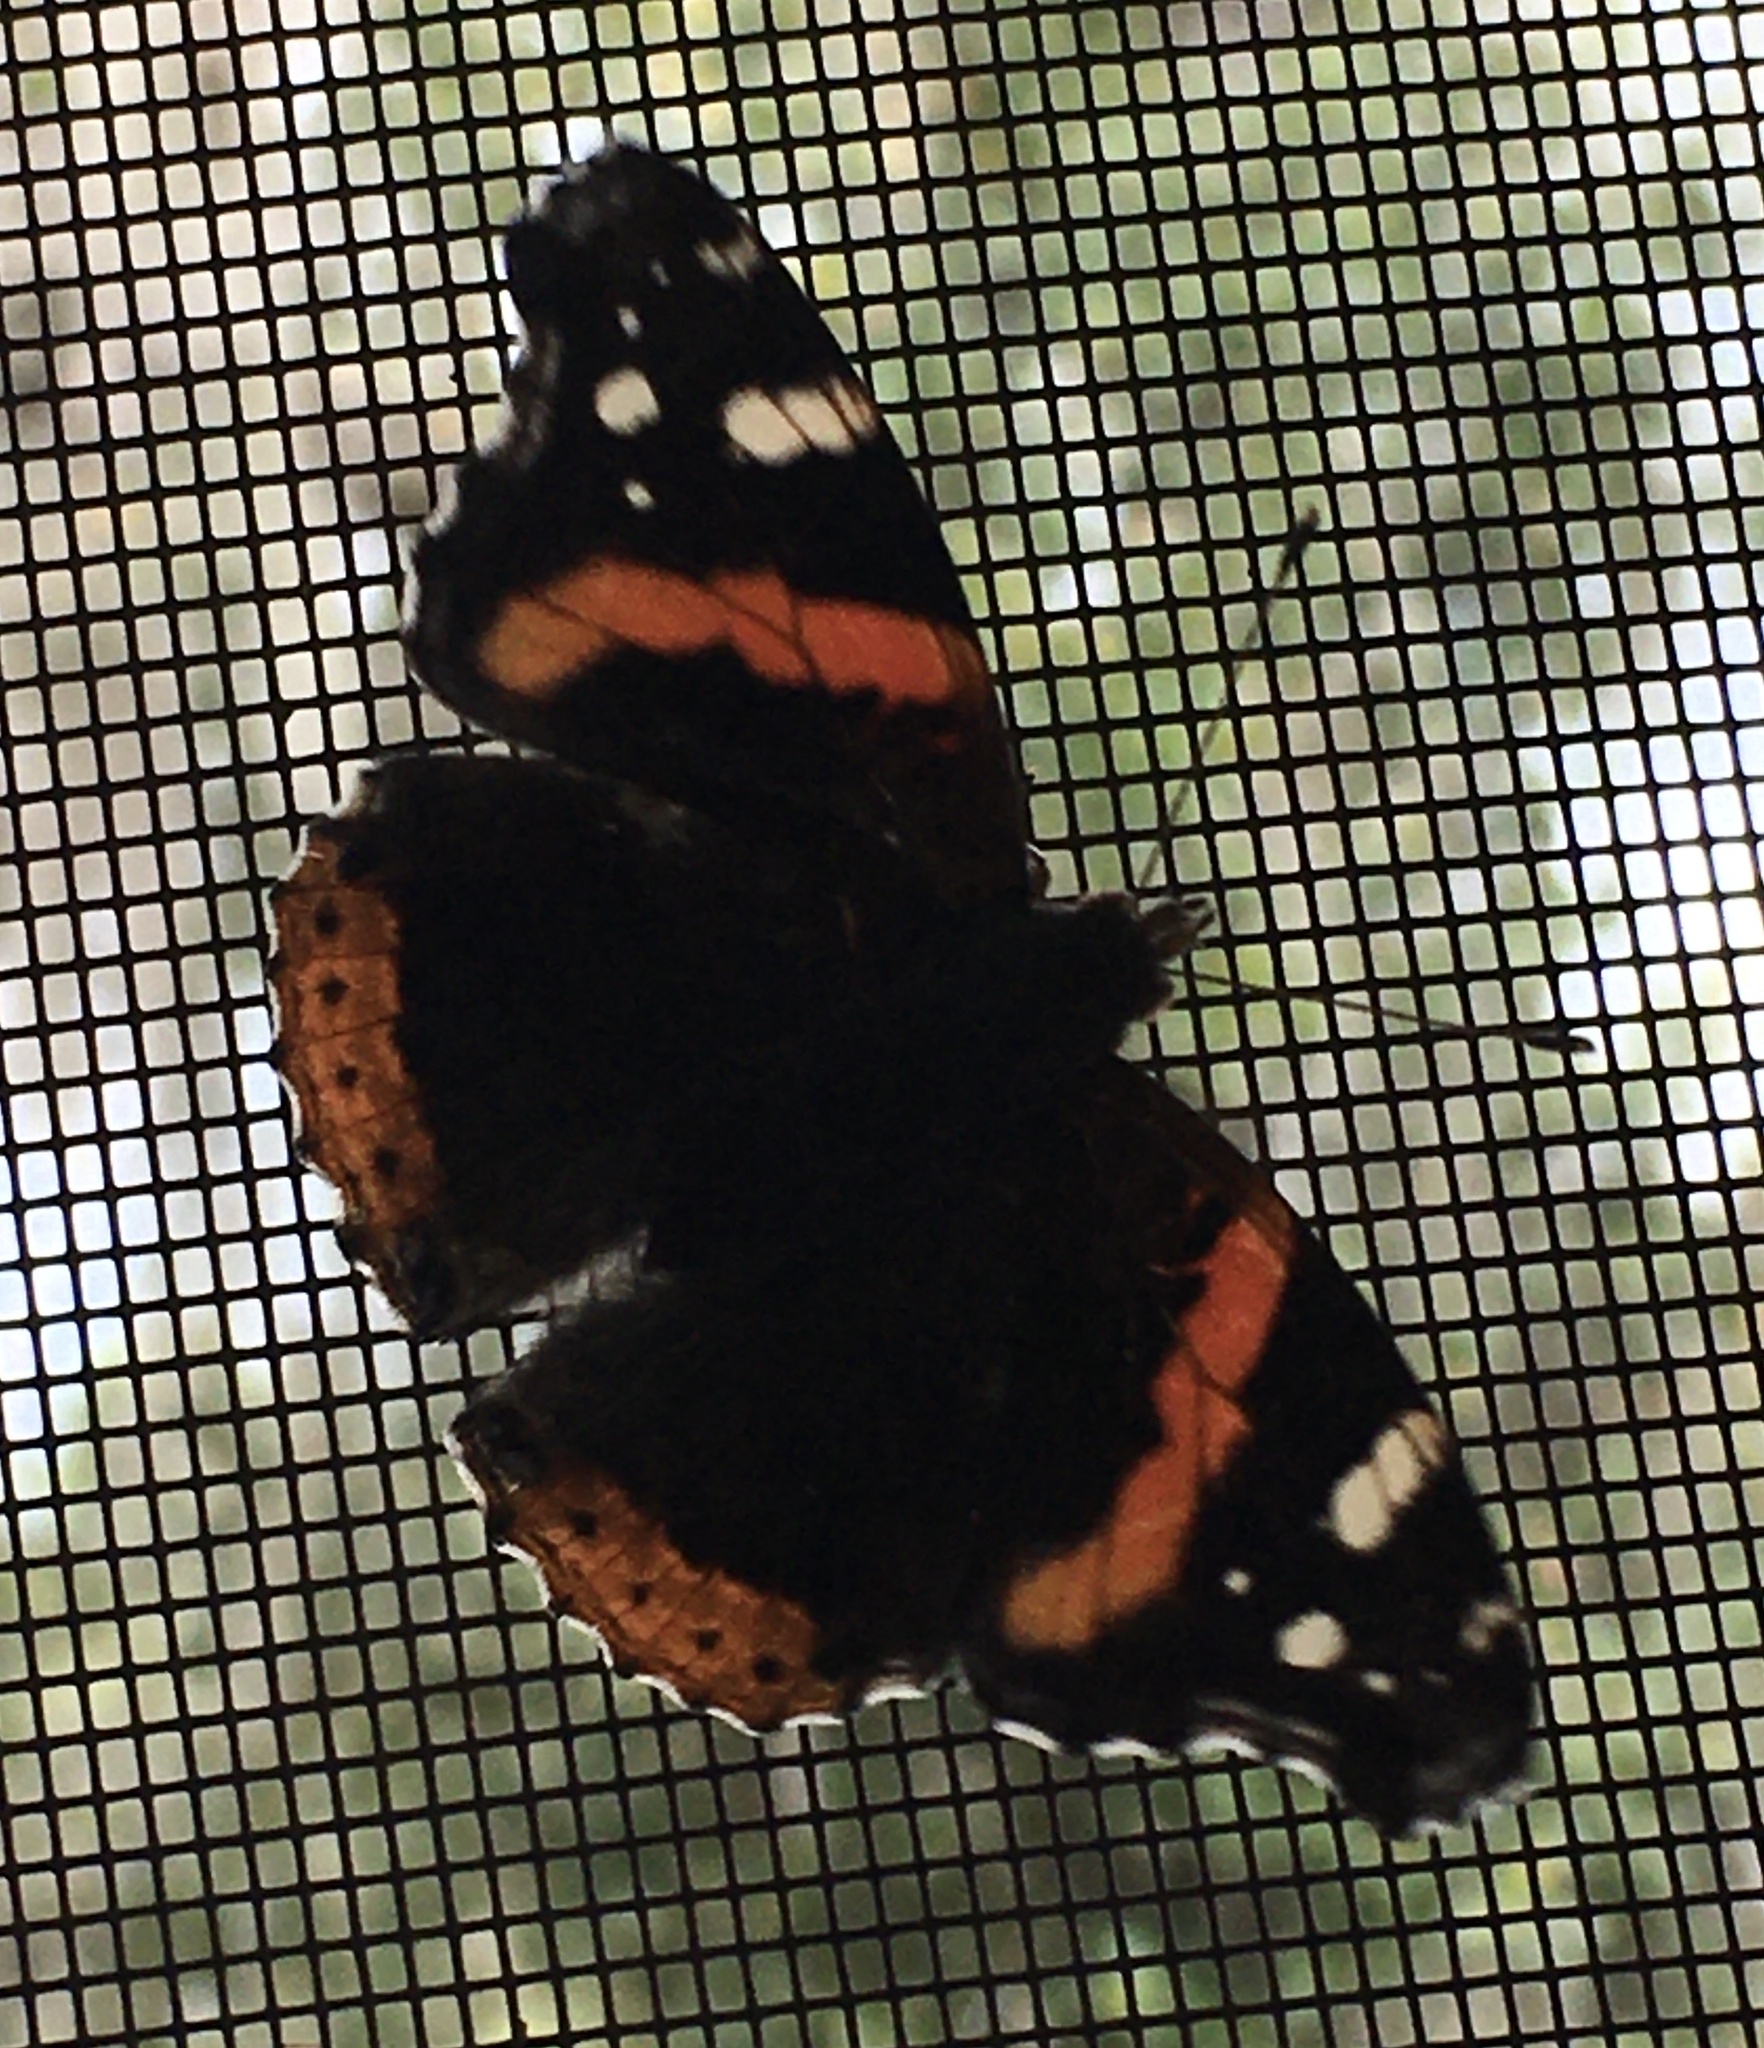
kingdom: Animalia
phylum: Arthropoda
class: Insecta
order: Lepidoptera
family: Nymphalidae
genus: Vanessa
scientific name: Vanessa atalanta
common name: Red admiral
